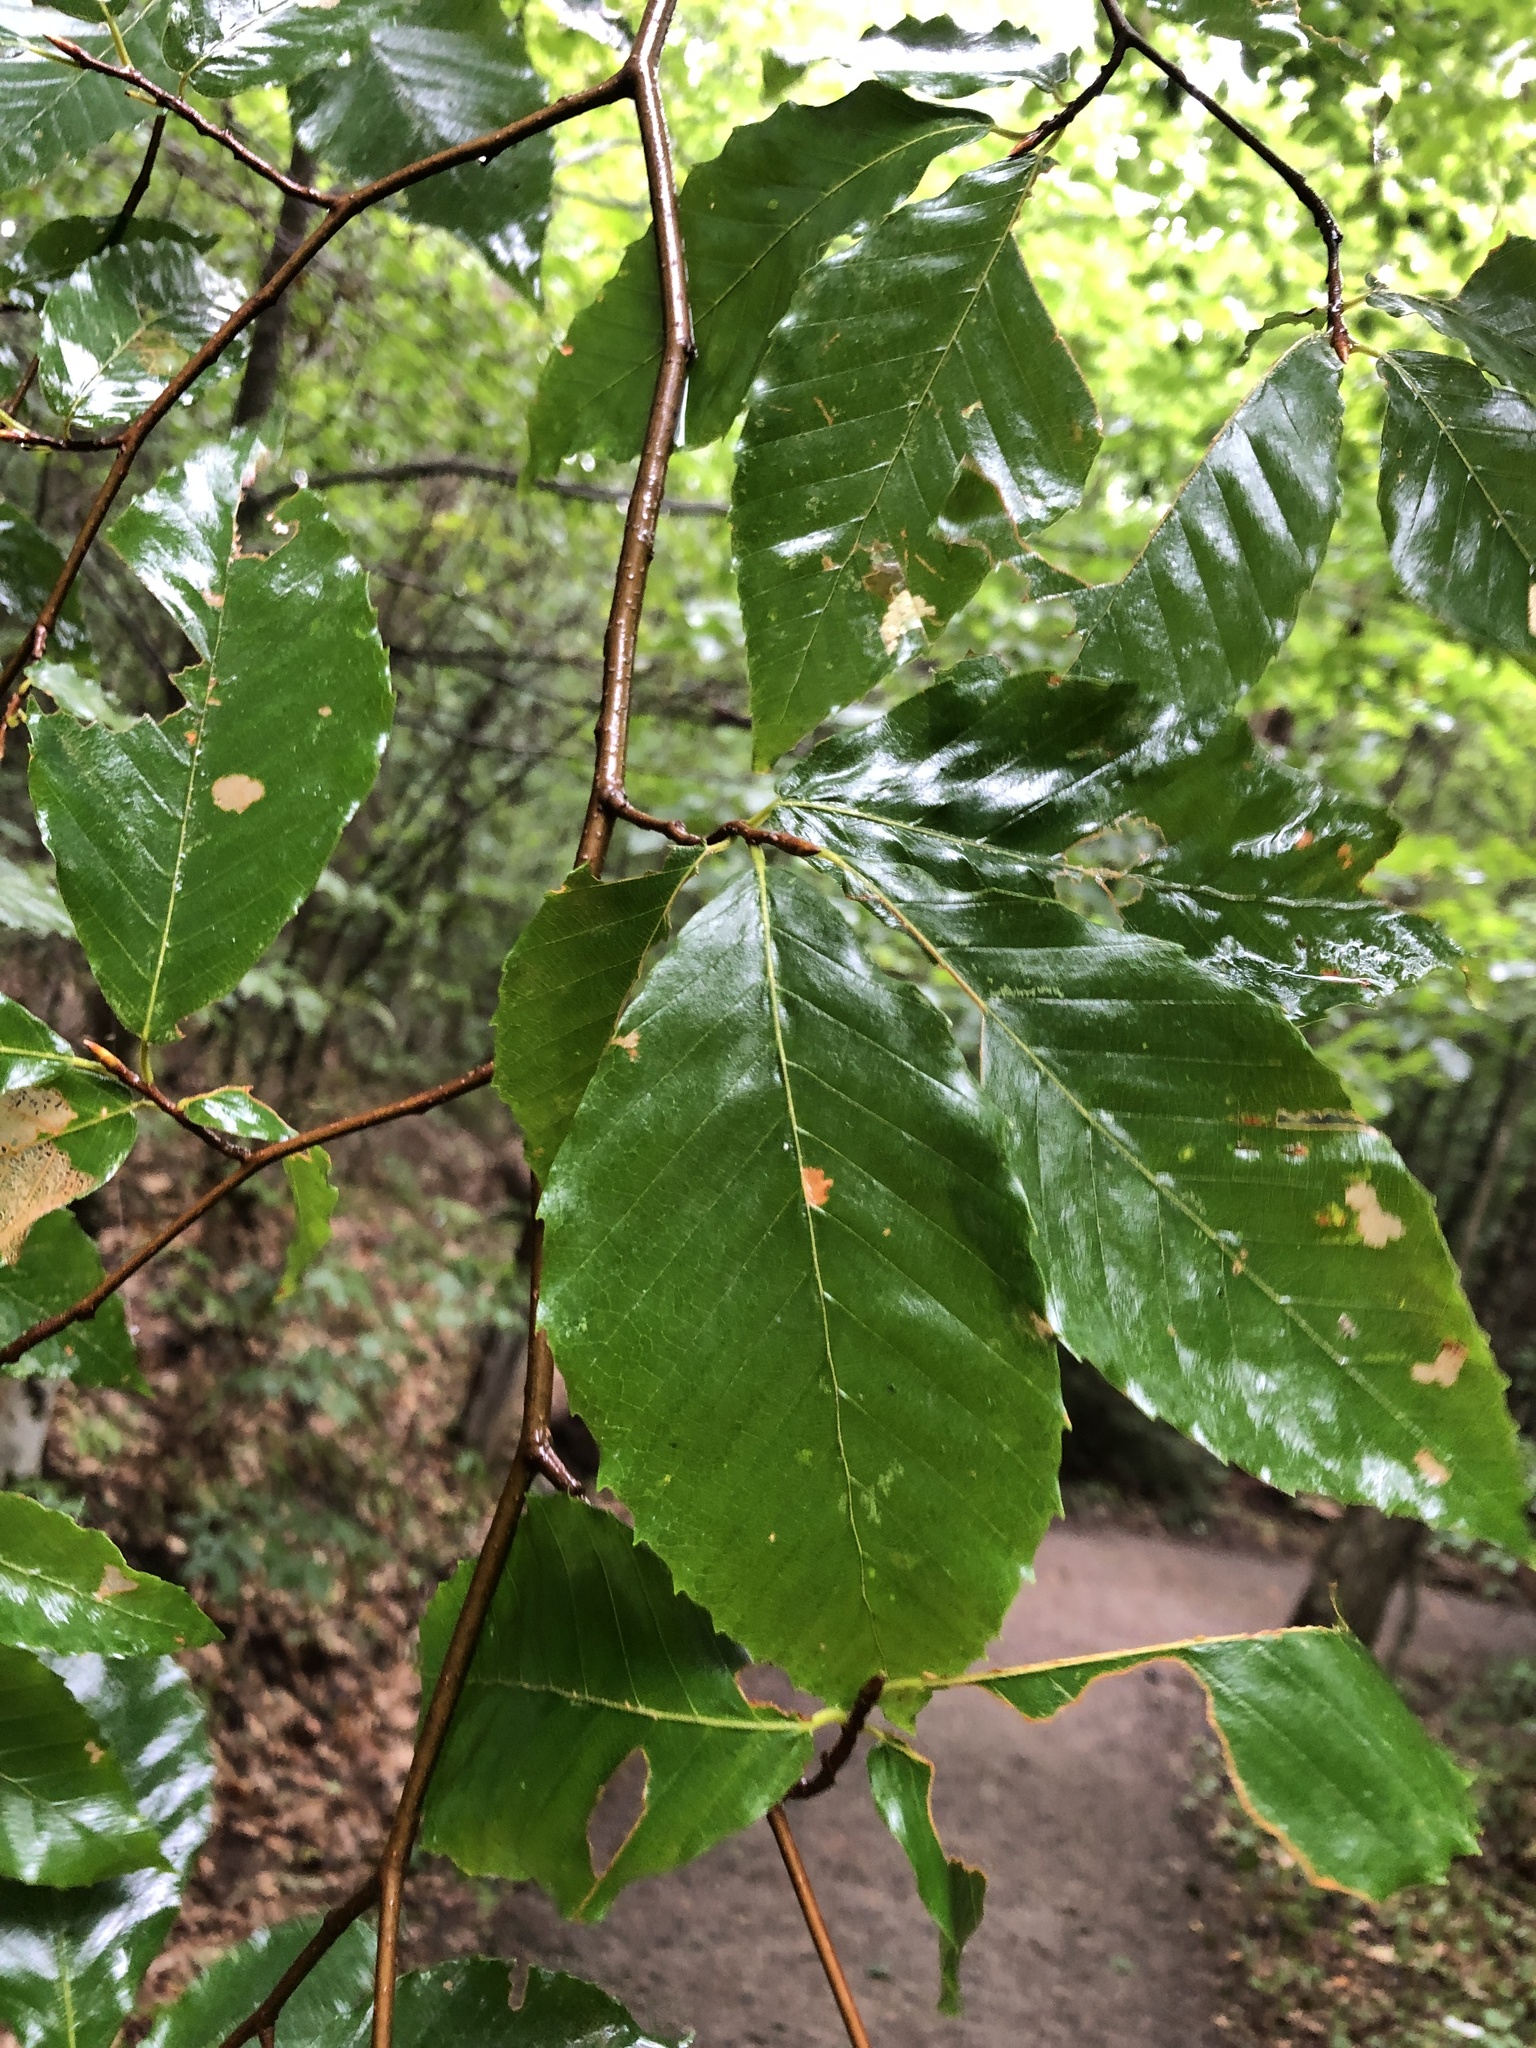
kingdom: Plantae
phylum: Tracheophyta
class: Magnoliopsida
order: Fagales
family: Fagaceae
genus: Fagus
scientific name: Fagus grandifolia
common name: American beech
